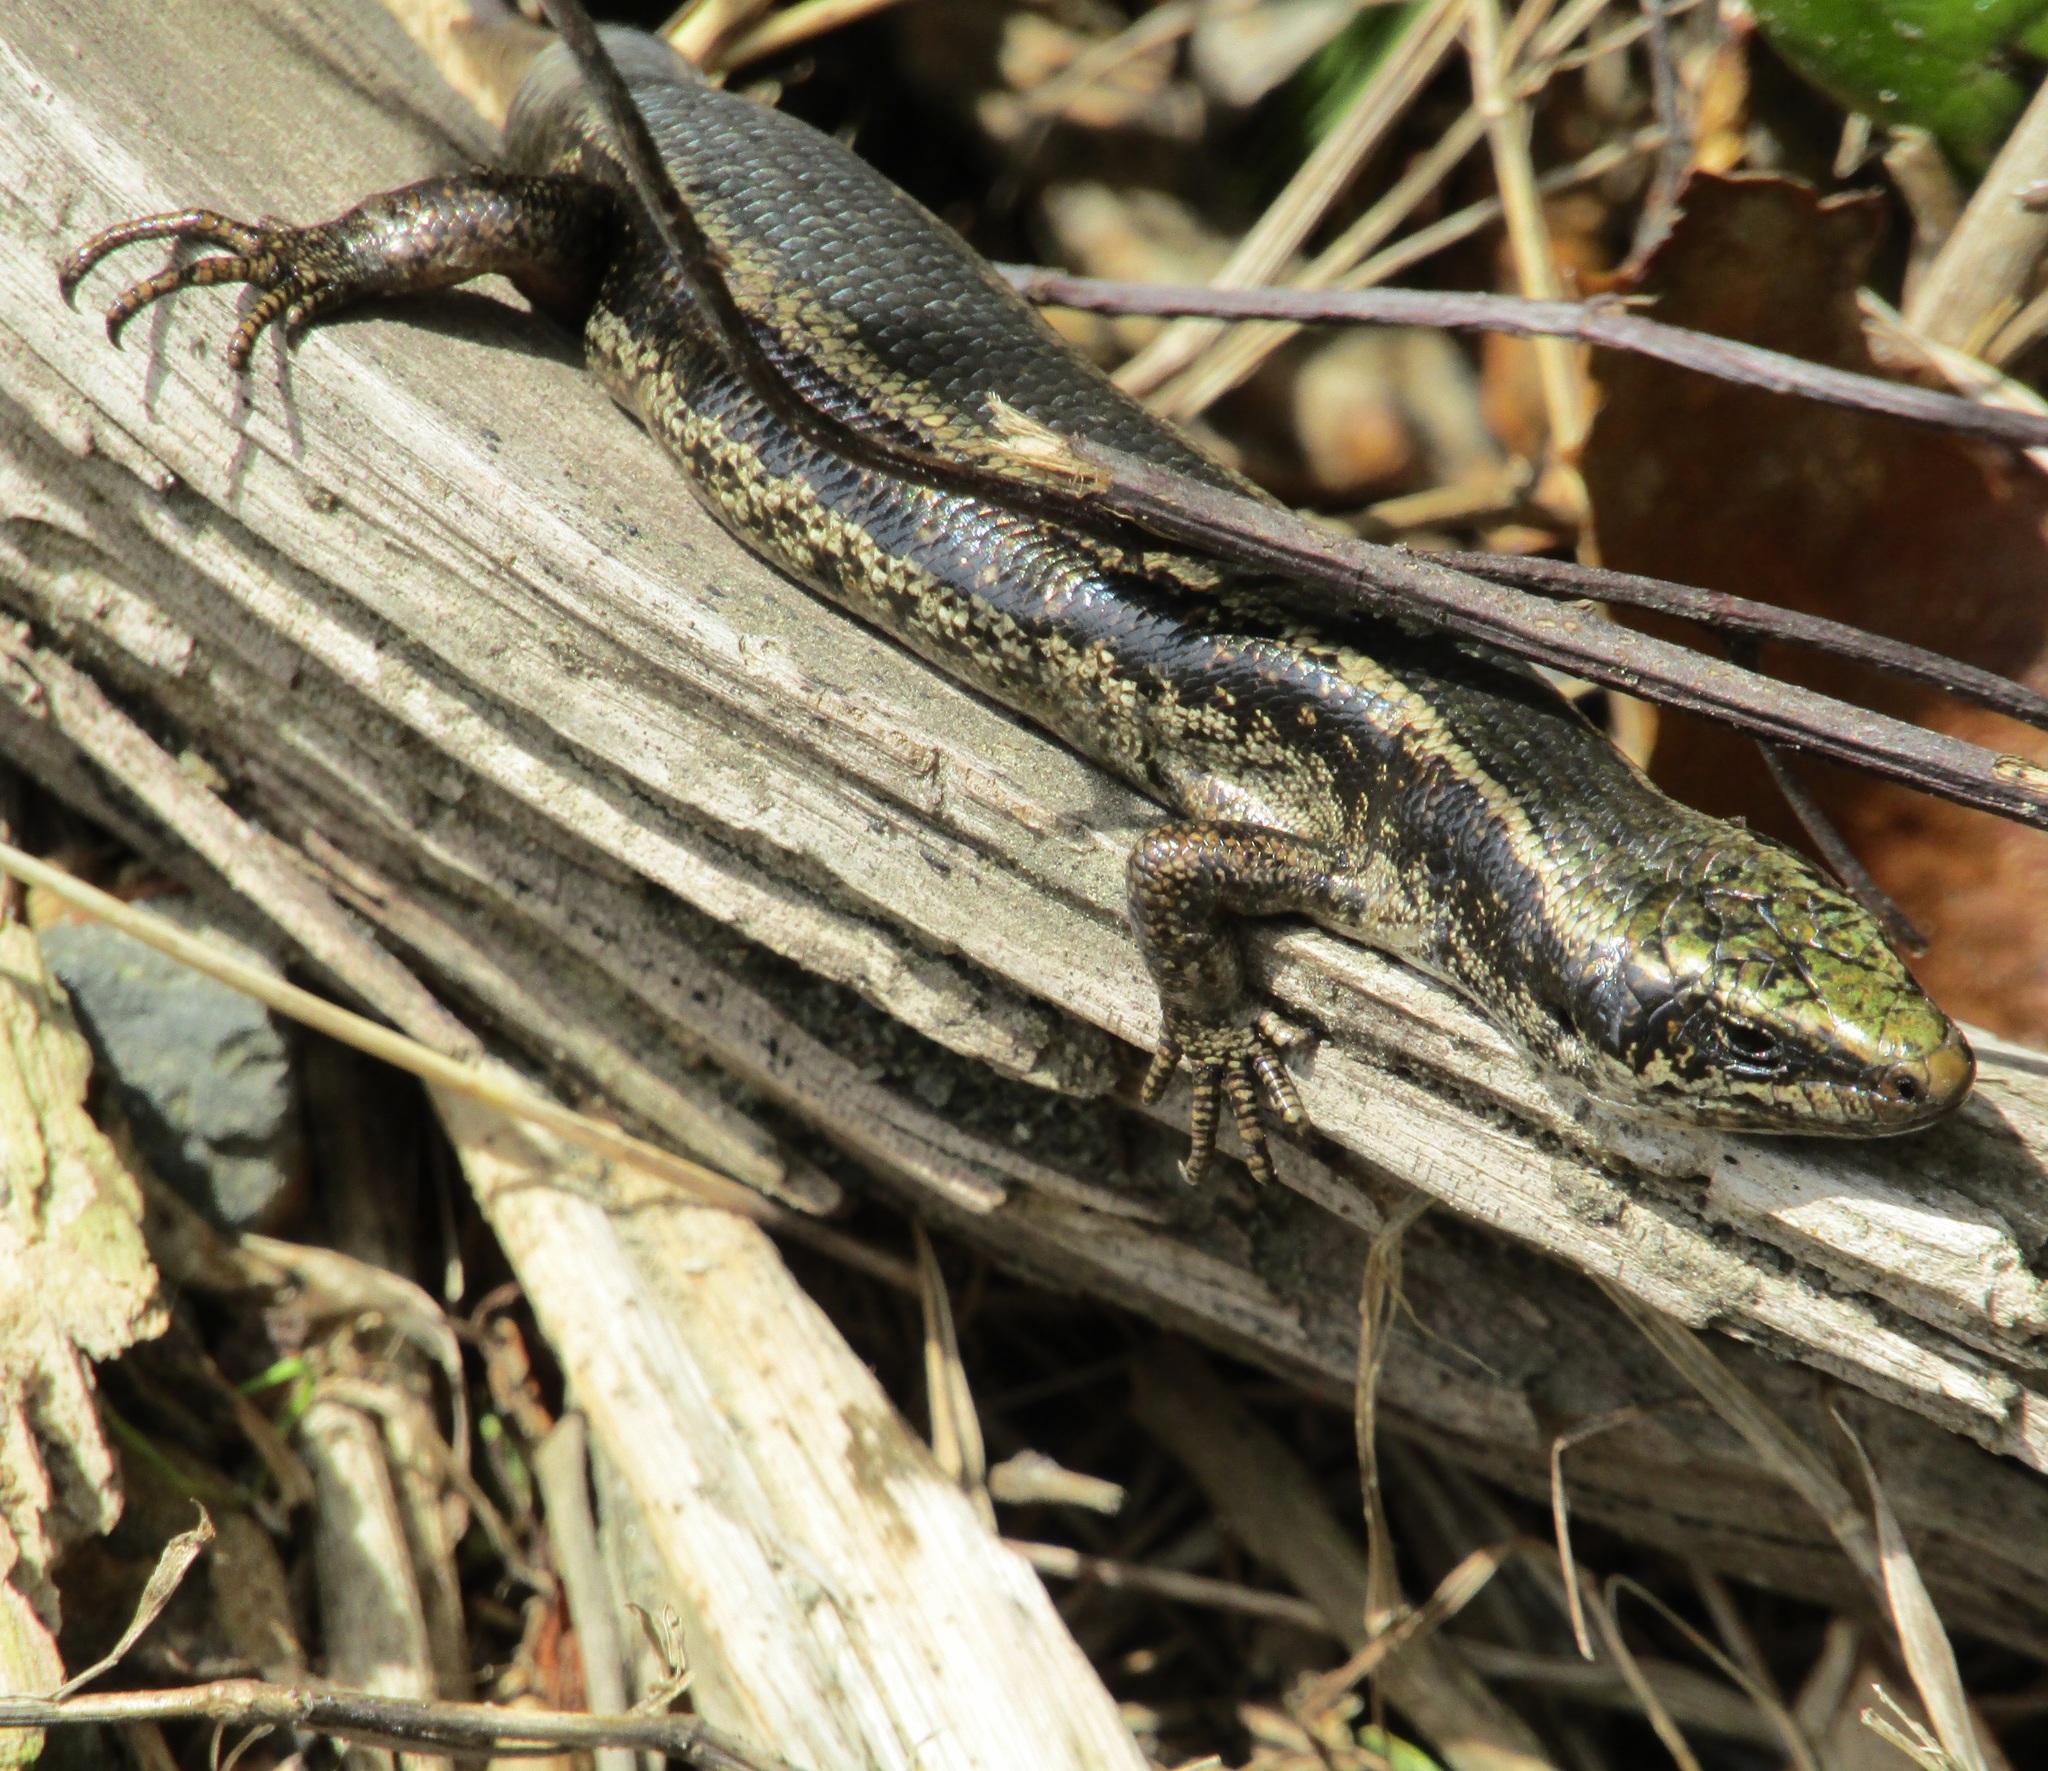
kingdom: Animalia
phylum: Chordata
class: Squamata
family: Scincidae
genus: Oligosoma
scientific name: Oligosoma kokowai
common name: Northern spotted skink
